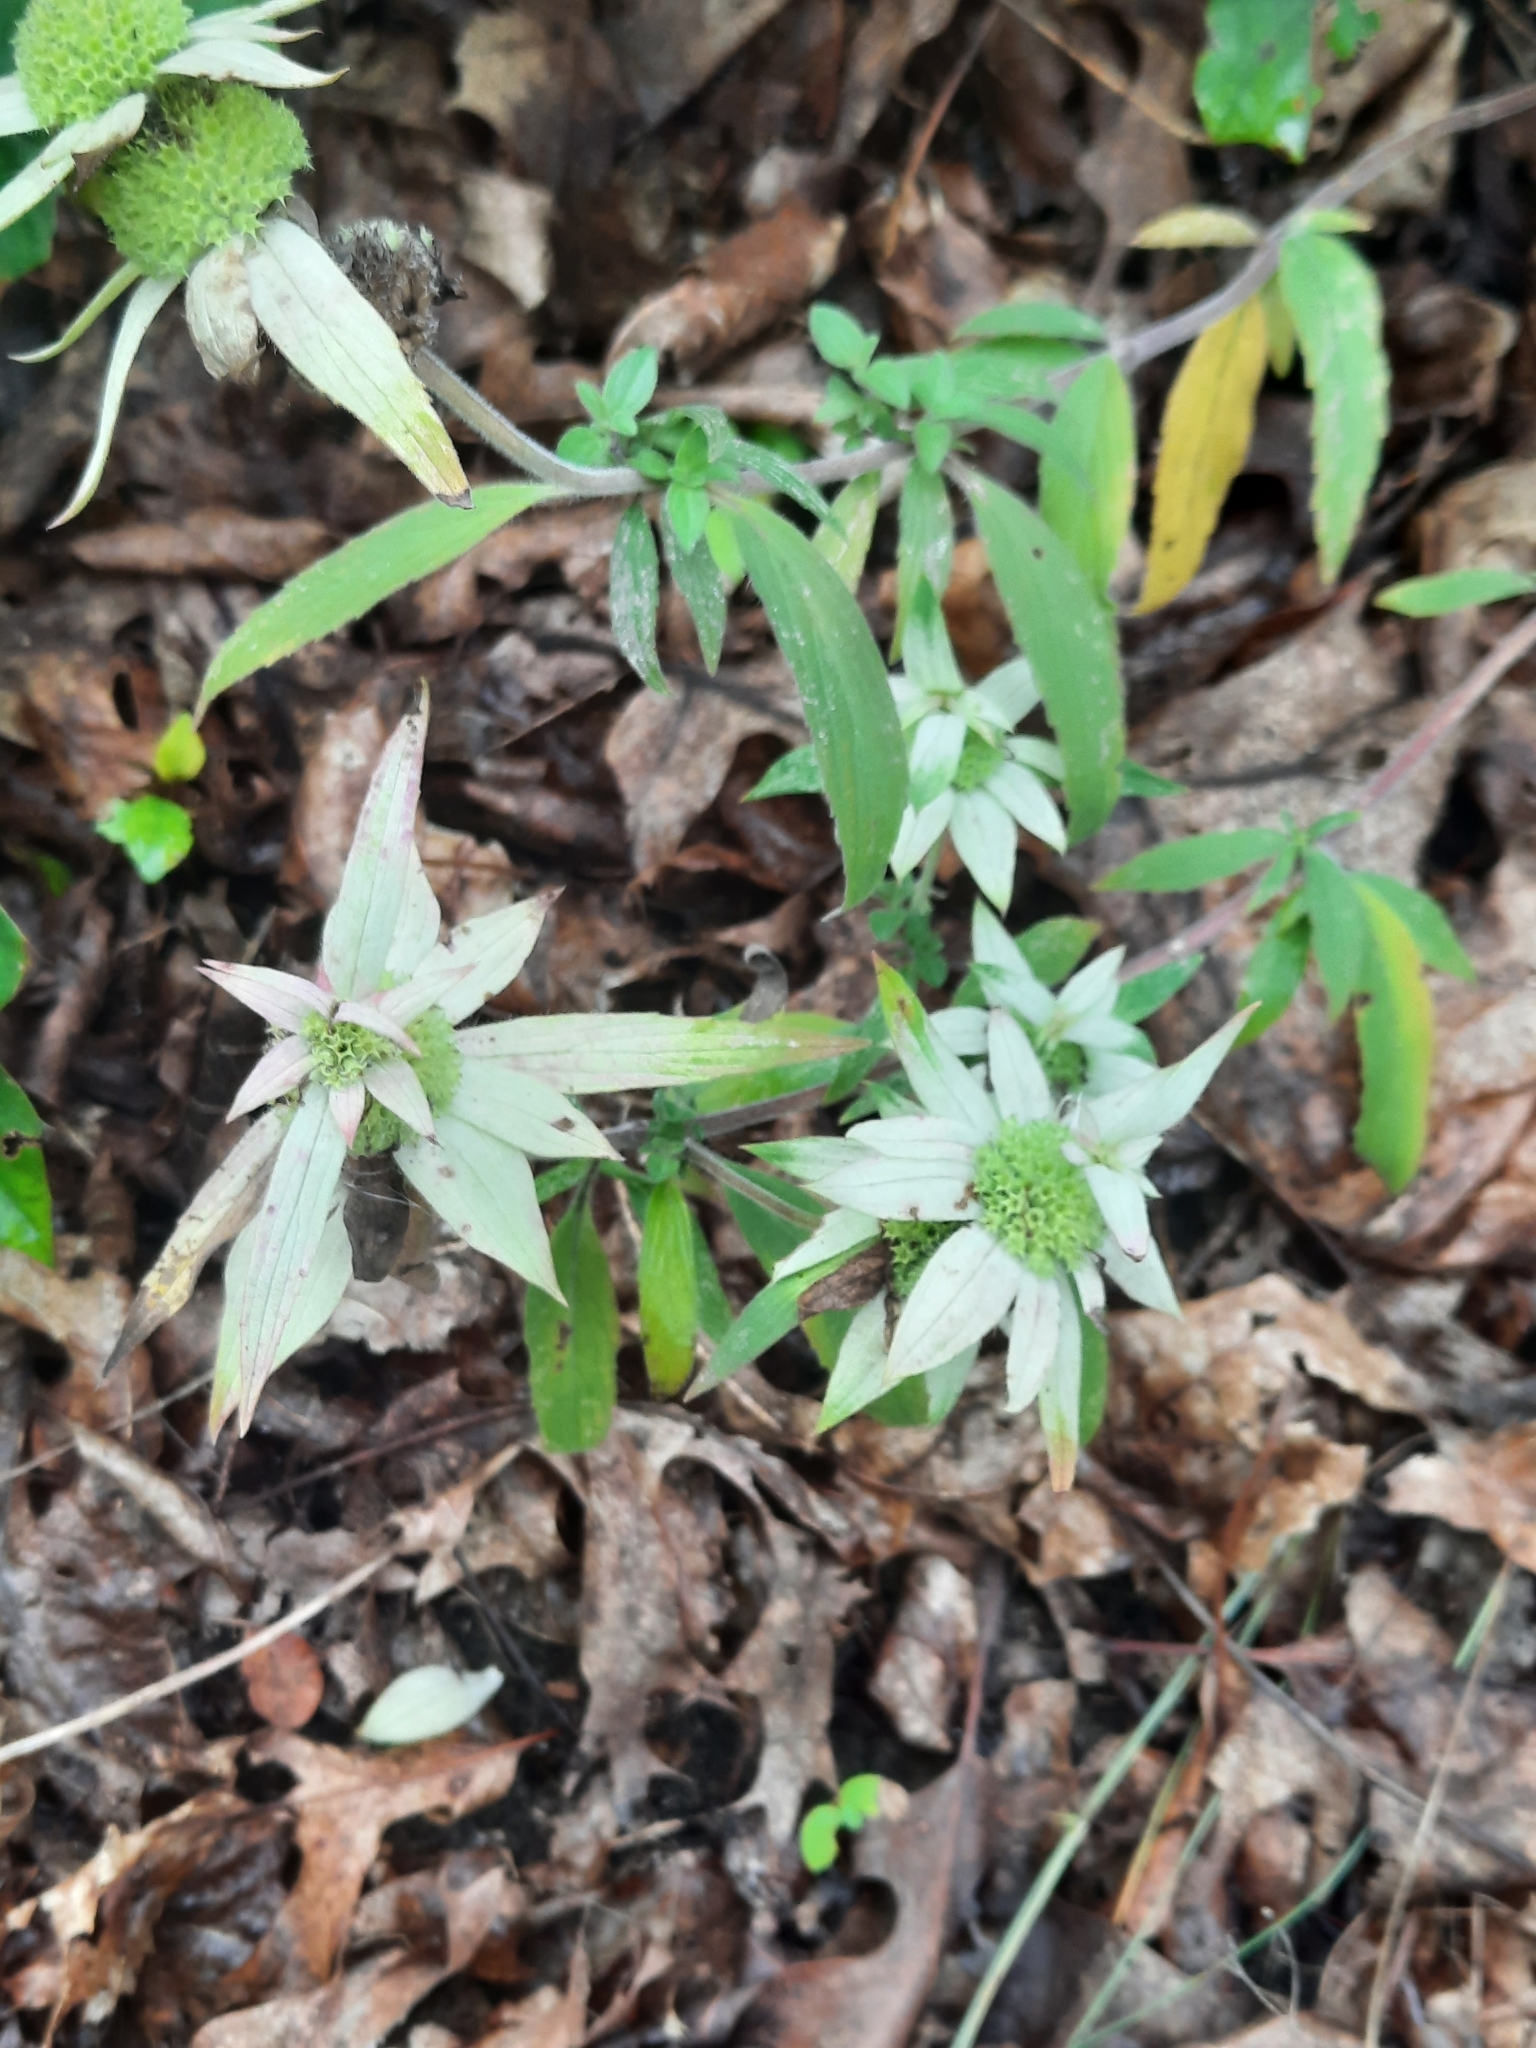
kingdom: Plantae
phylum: Tracheophyta
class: Magnoliopsida
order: Lamiales
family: Lamiaceae
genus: Monarda
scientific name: Monarda punctata
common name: Dotted monarda
